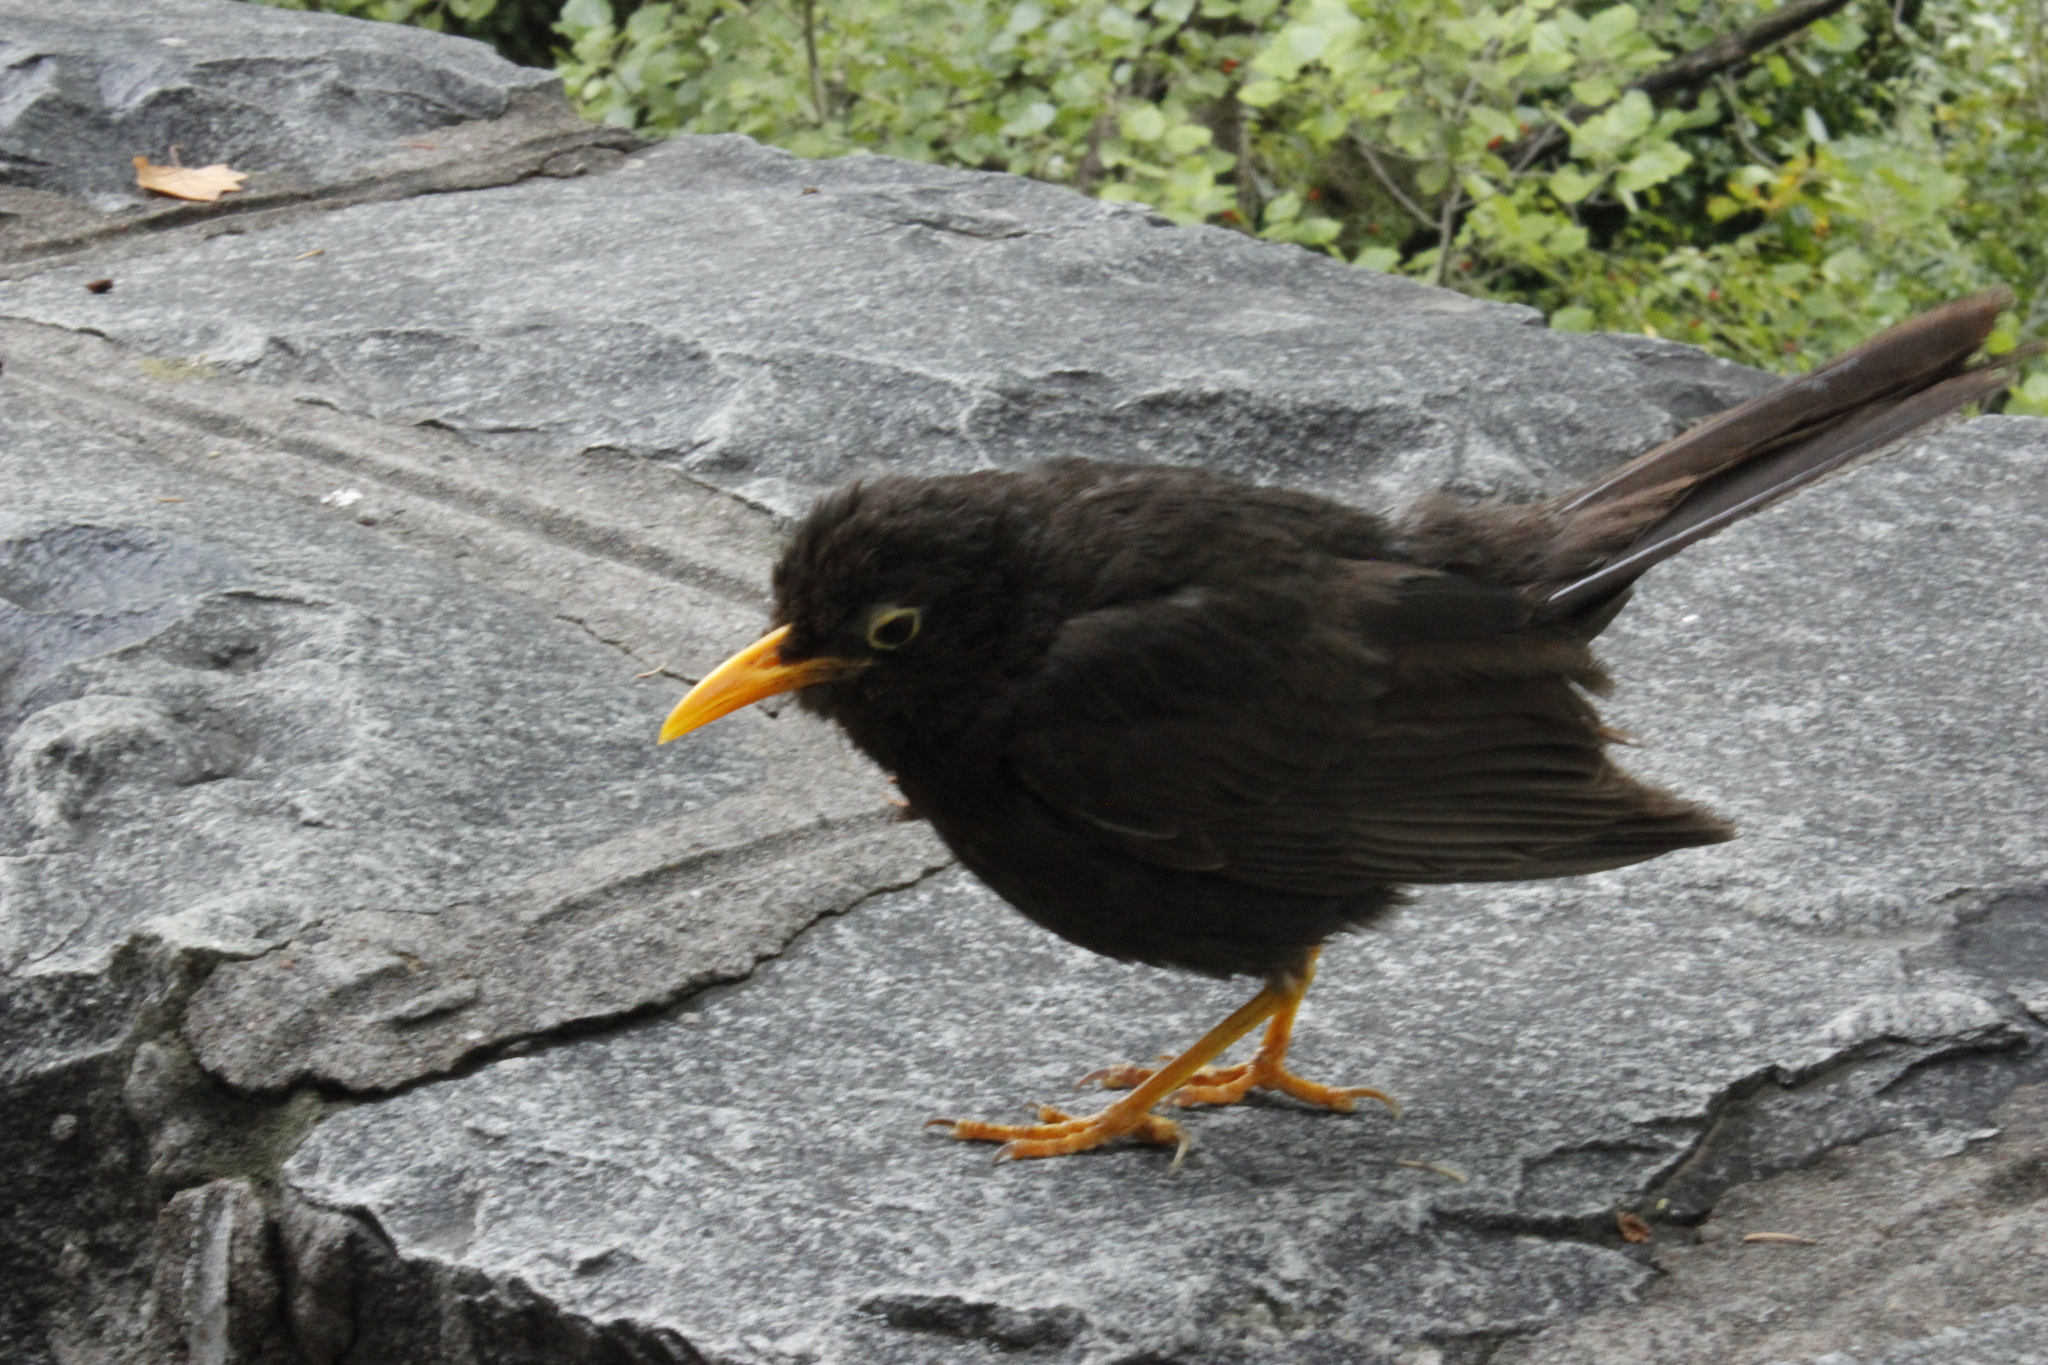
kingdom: Animalia
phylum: Chordata
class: Aves
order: Passeriformes
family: Turdidae
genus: Turdus
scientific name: Turdus chiguanco
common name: Chiguanco thrush
